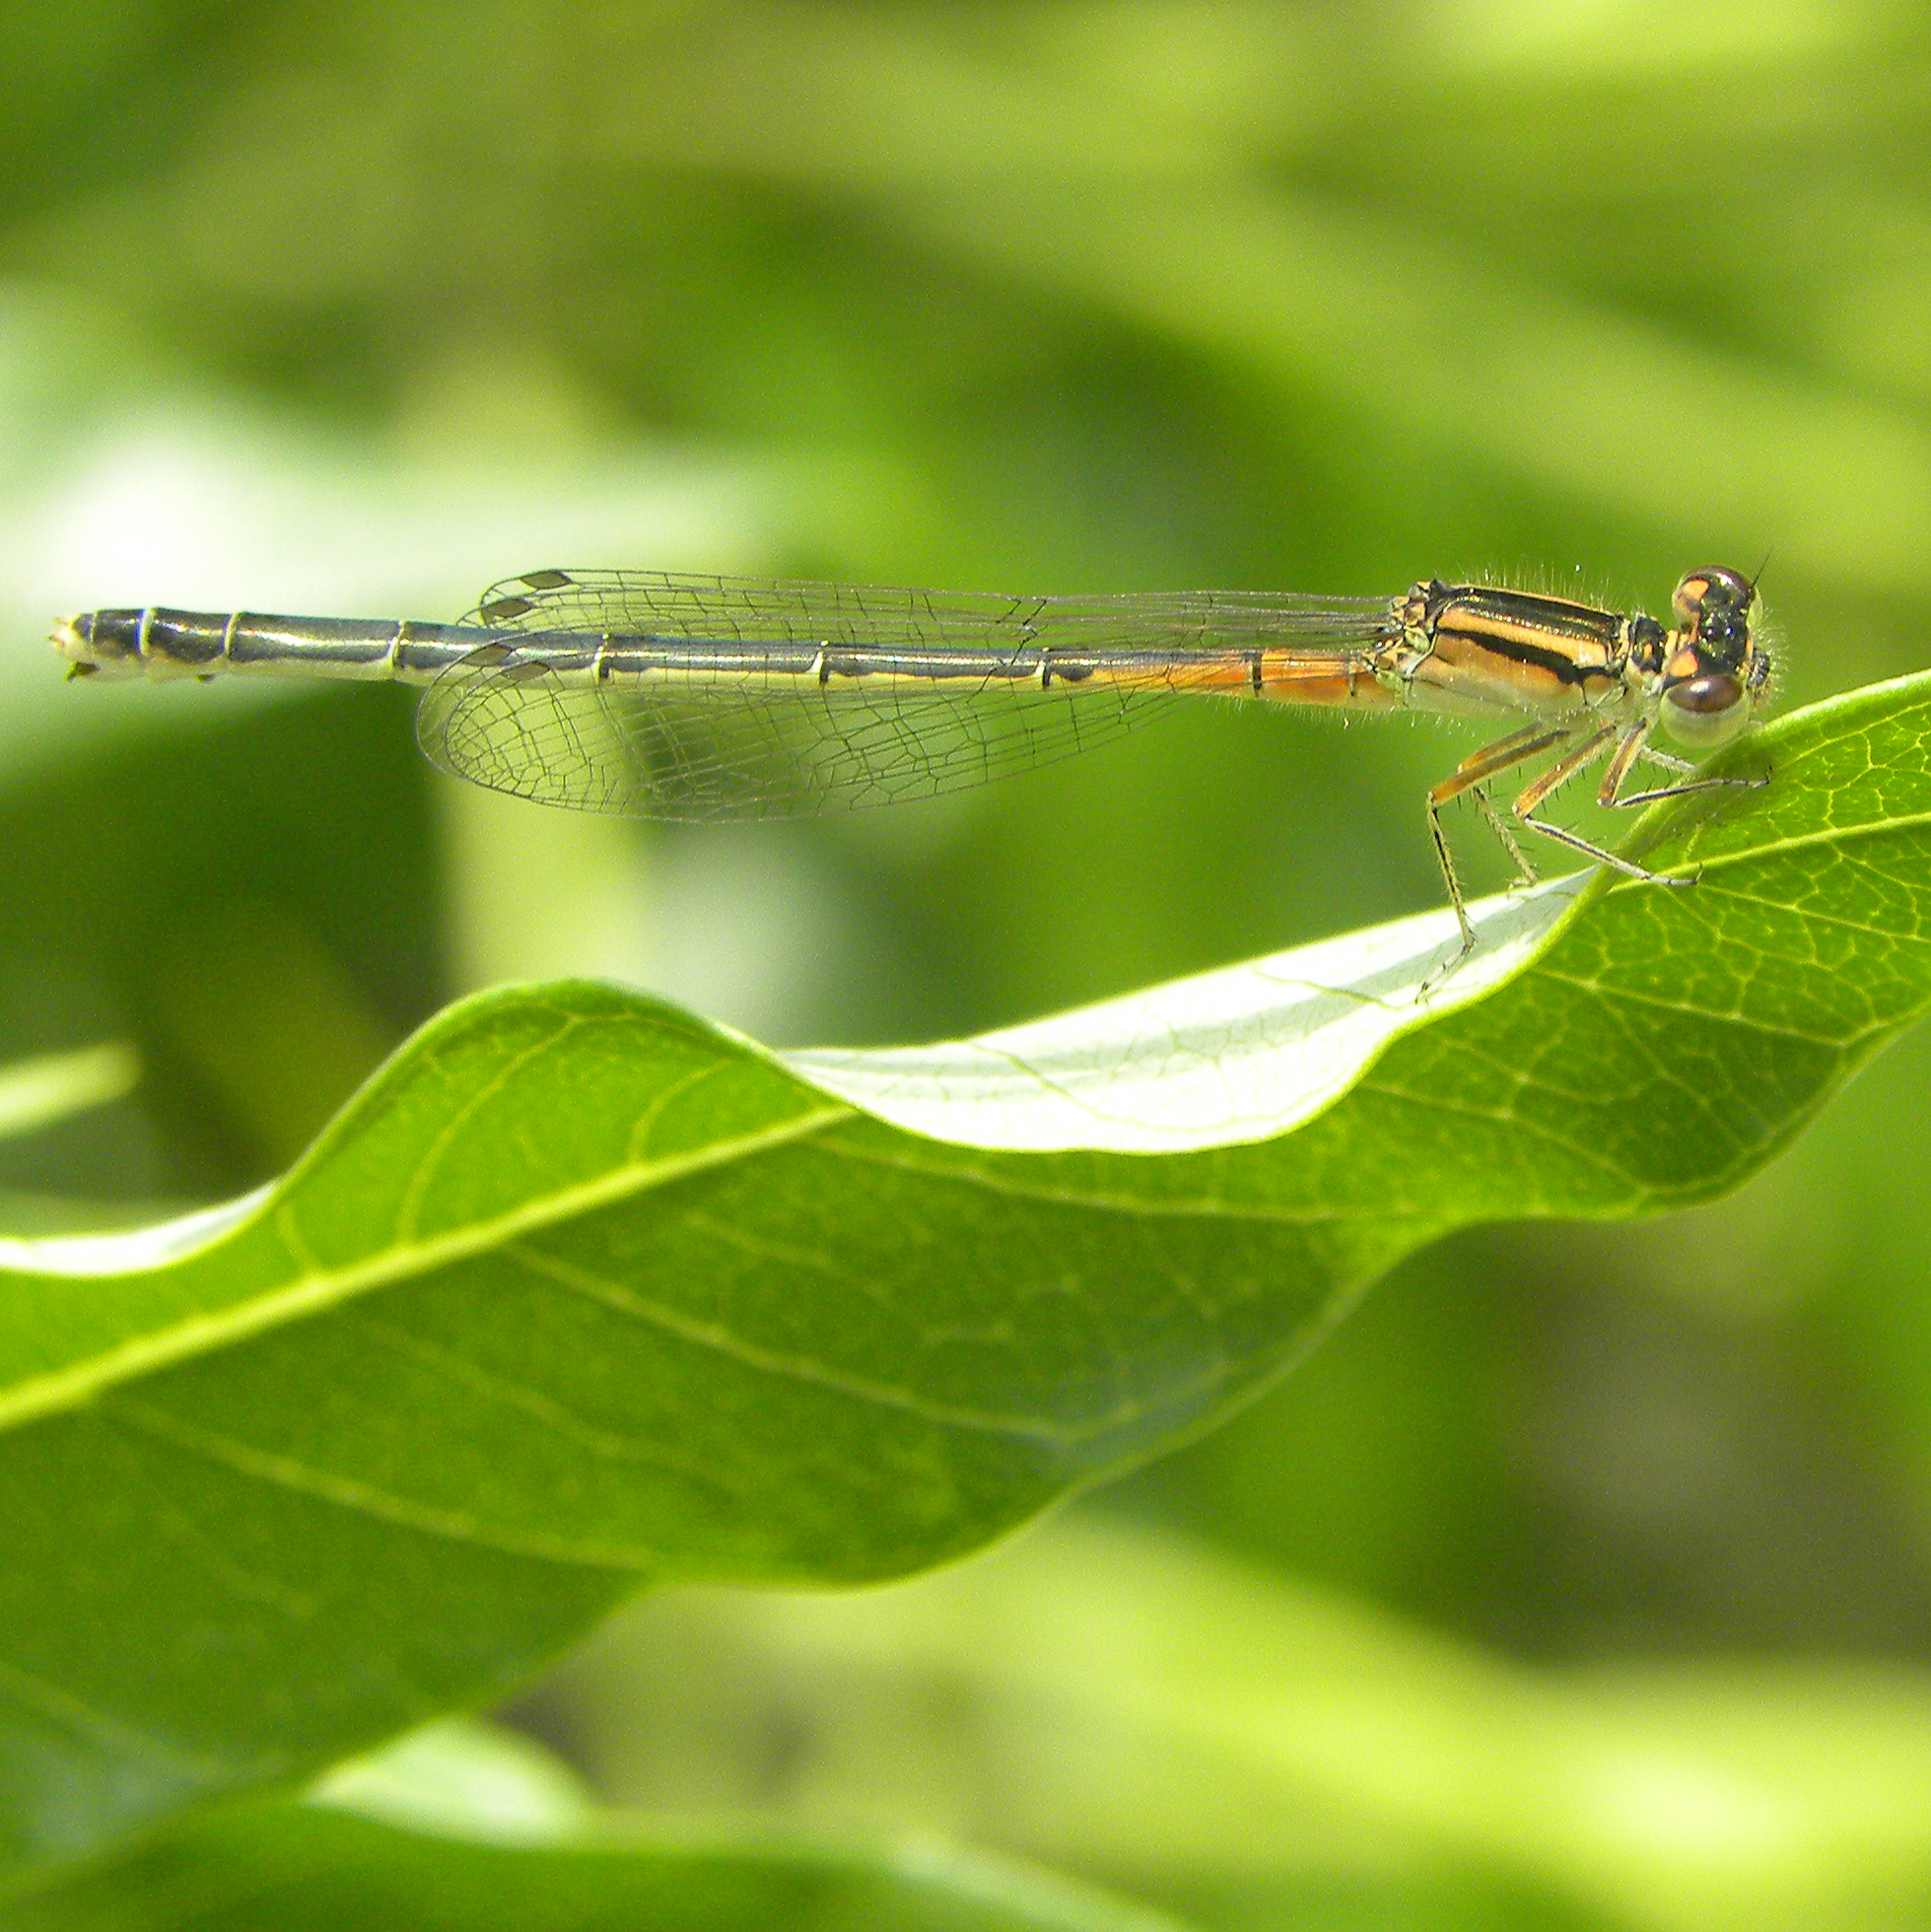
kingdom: Animalia
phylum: Arthropoda
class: Insecta
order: Odonata
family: Coenagrionidae
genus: Ischnura
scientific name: Ischnura verticalis
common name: Eastern forktail
